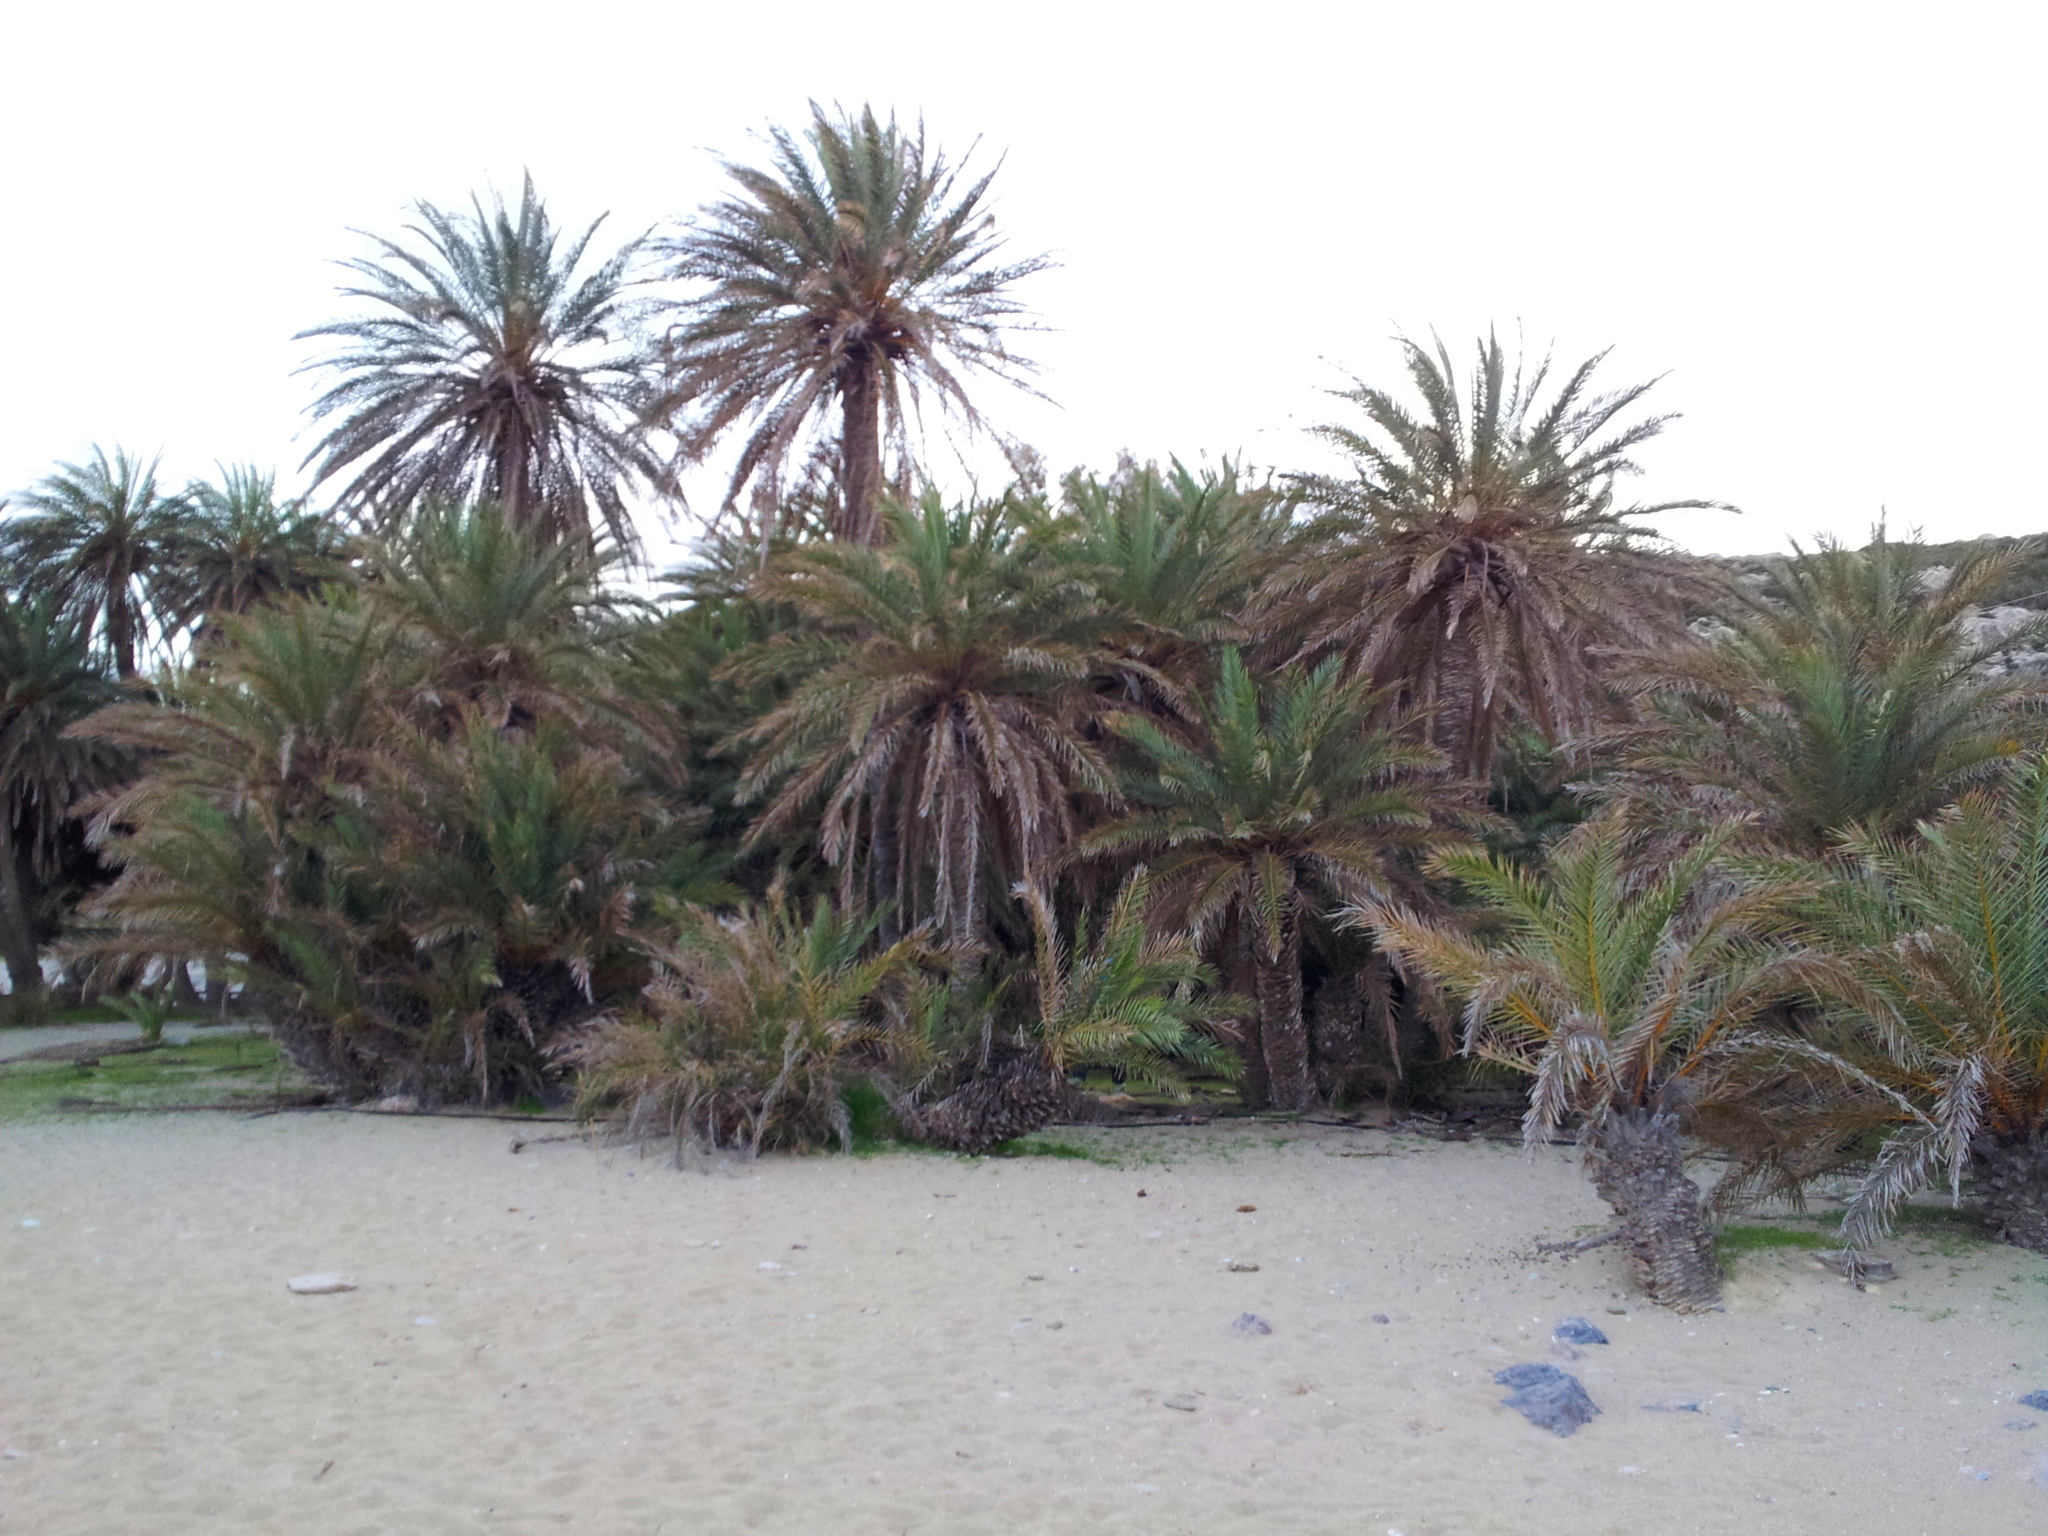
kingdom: Plantae
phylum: Tracheophyta
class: Liliopsida
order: Arecales
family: Arecaceae
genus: Phoenix
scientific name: Phoenix theophrasti
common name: Cretan date palm
